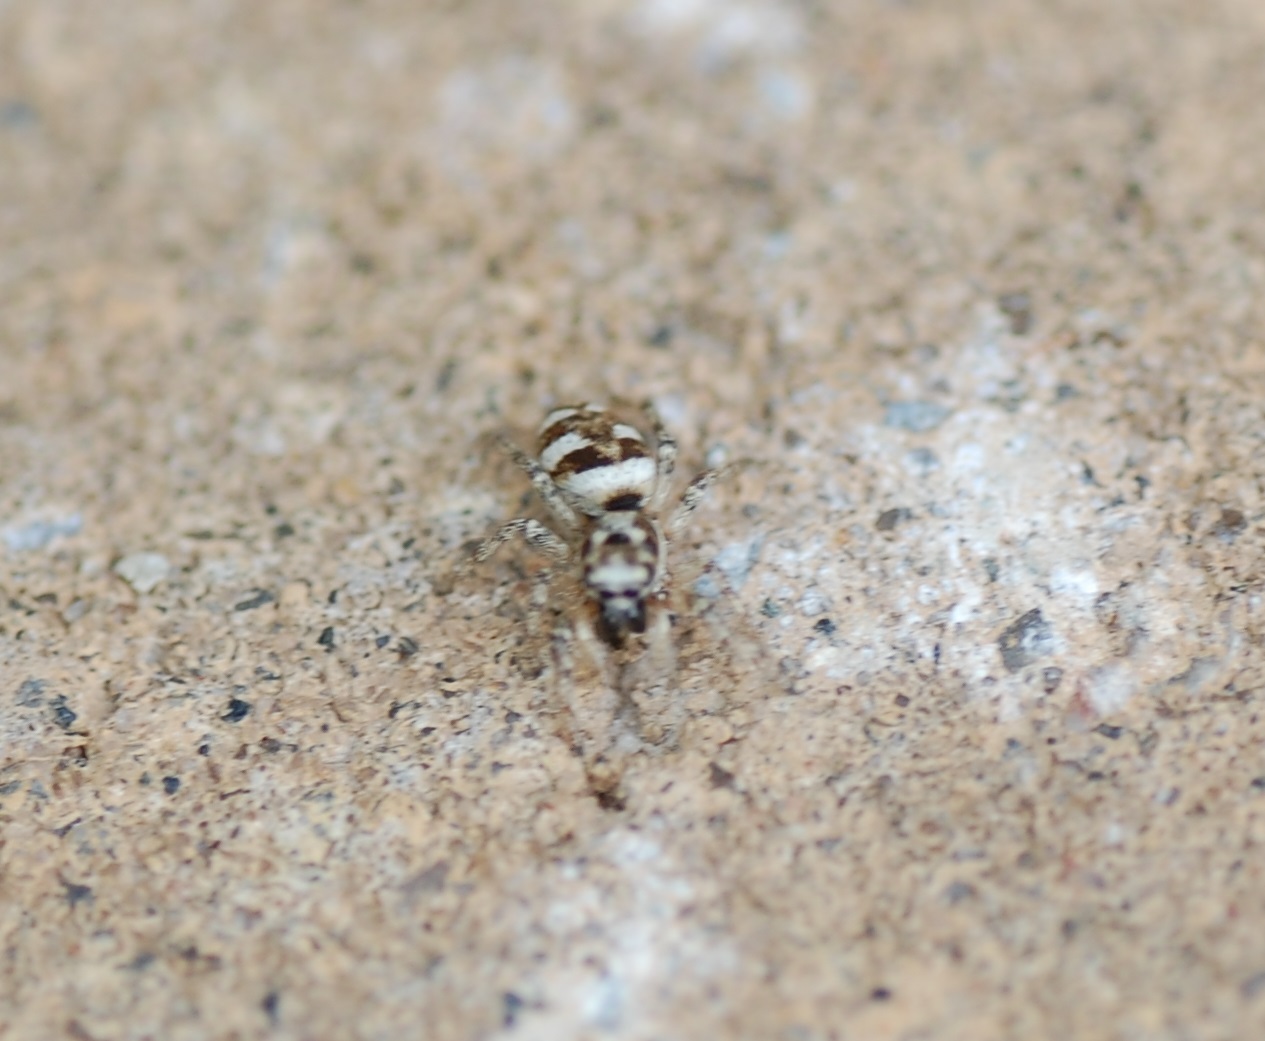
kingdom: Animalia
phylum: Arthropoda
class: Arachnida
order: Araneae
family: Salticidae
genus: Salticus
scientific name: Salticus scenicus
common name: Zebra jumper
